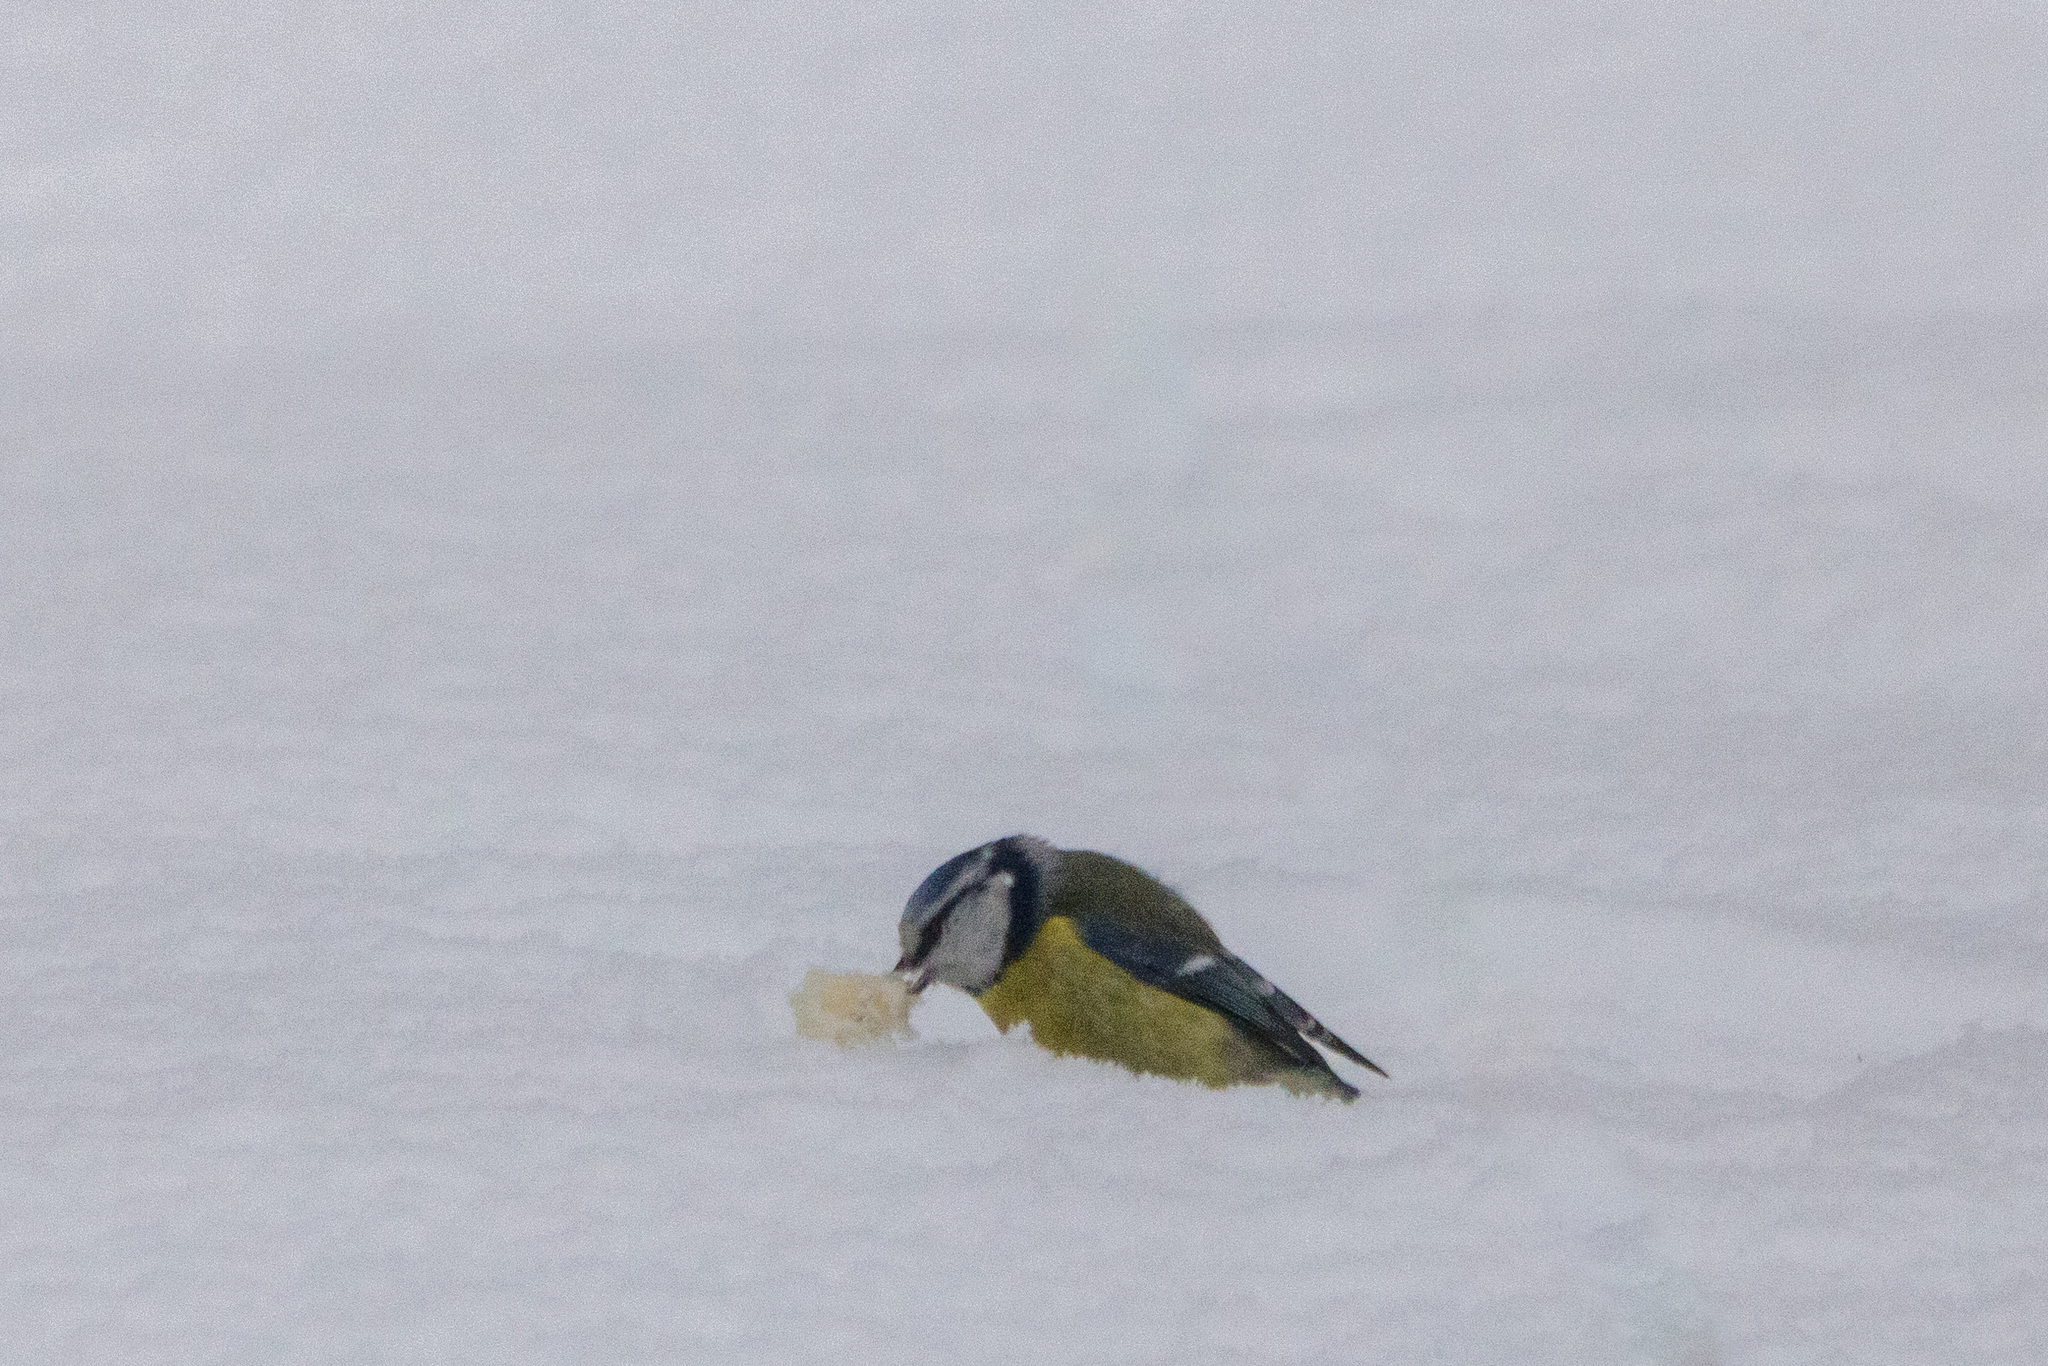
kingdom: Animalia
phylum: Chordata
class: Aves
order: Passeriformes
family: Paridae
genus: Cyanistes
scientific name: Cyanistes caeruleus
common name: Eurasian blue tit
